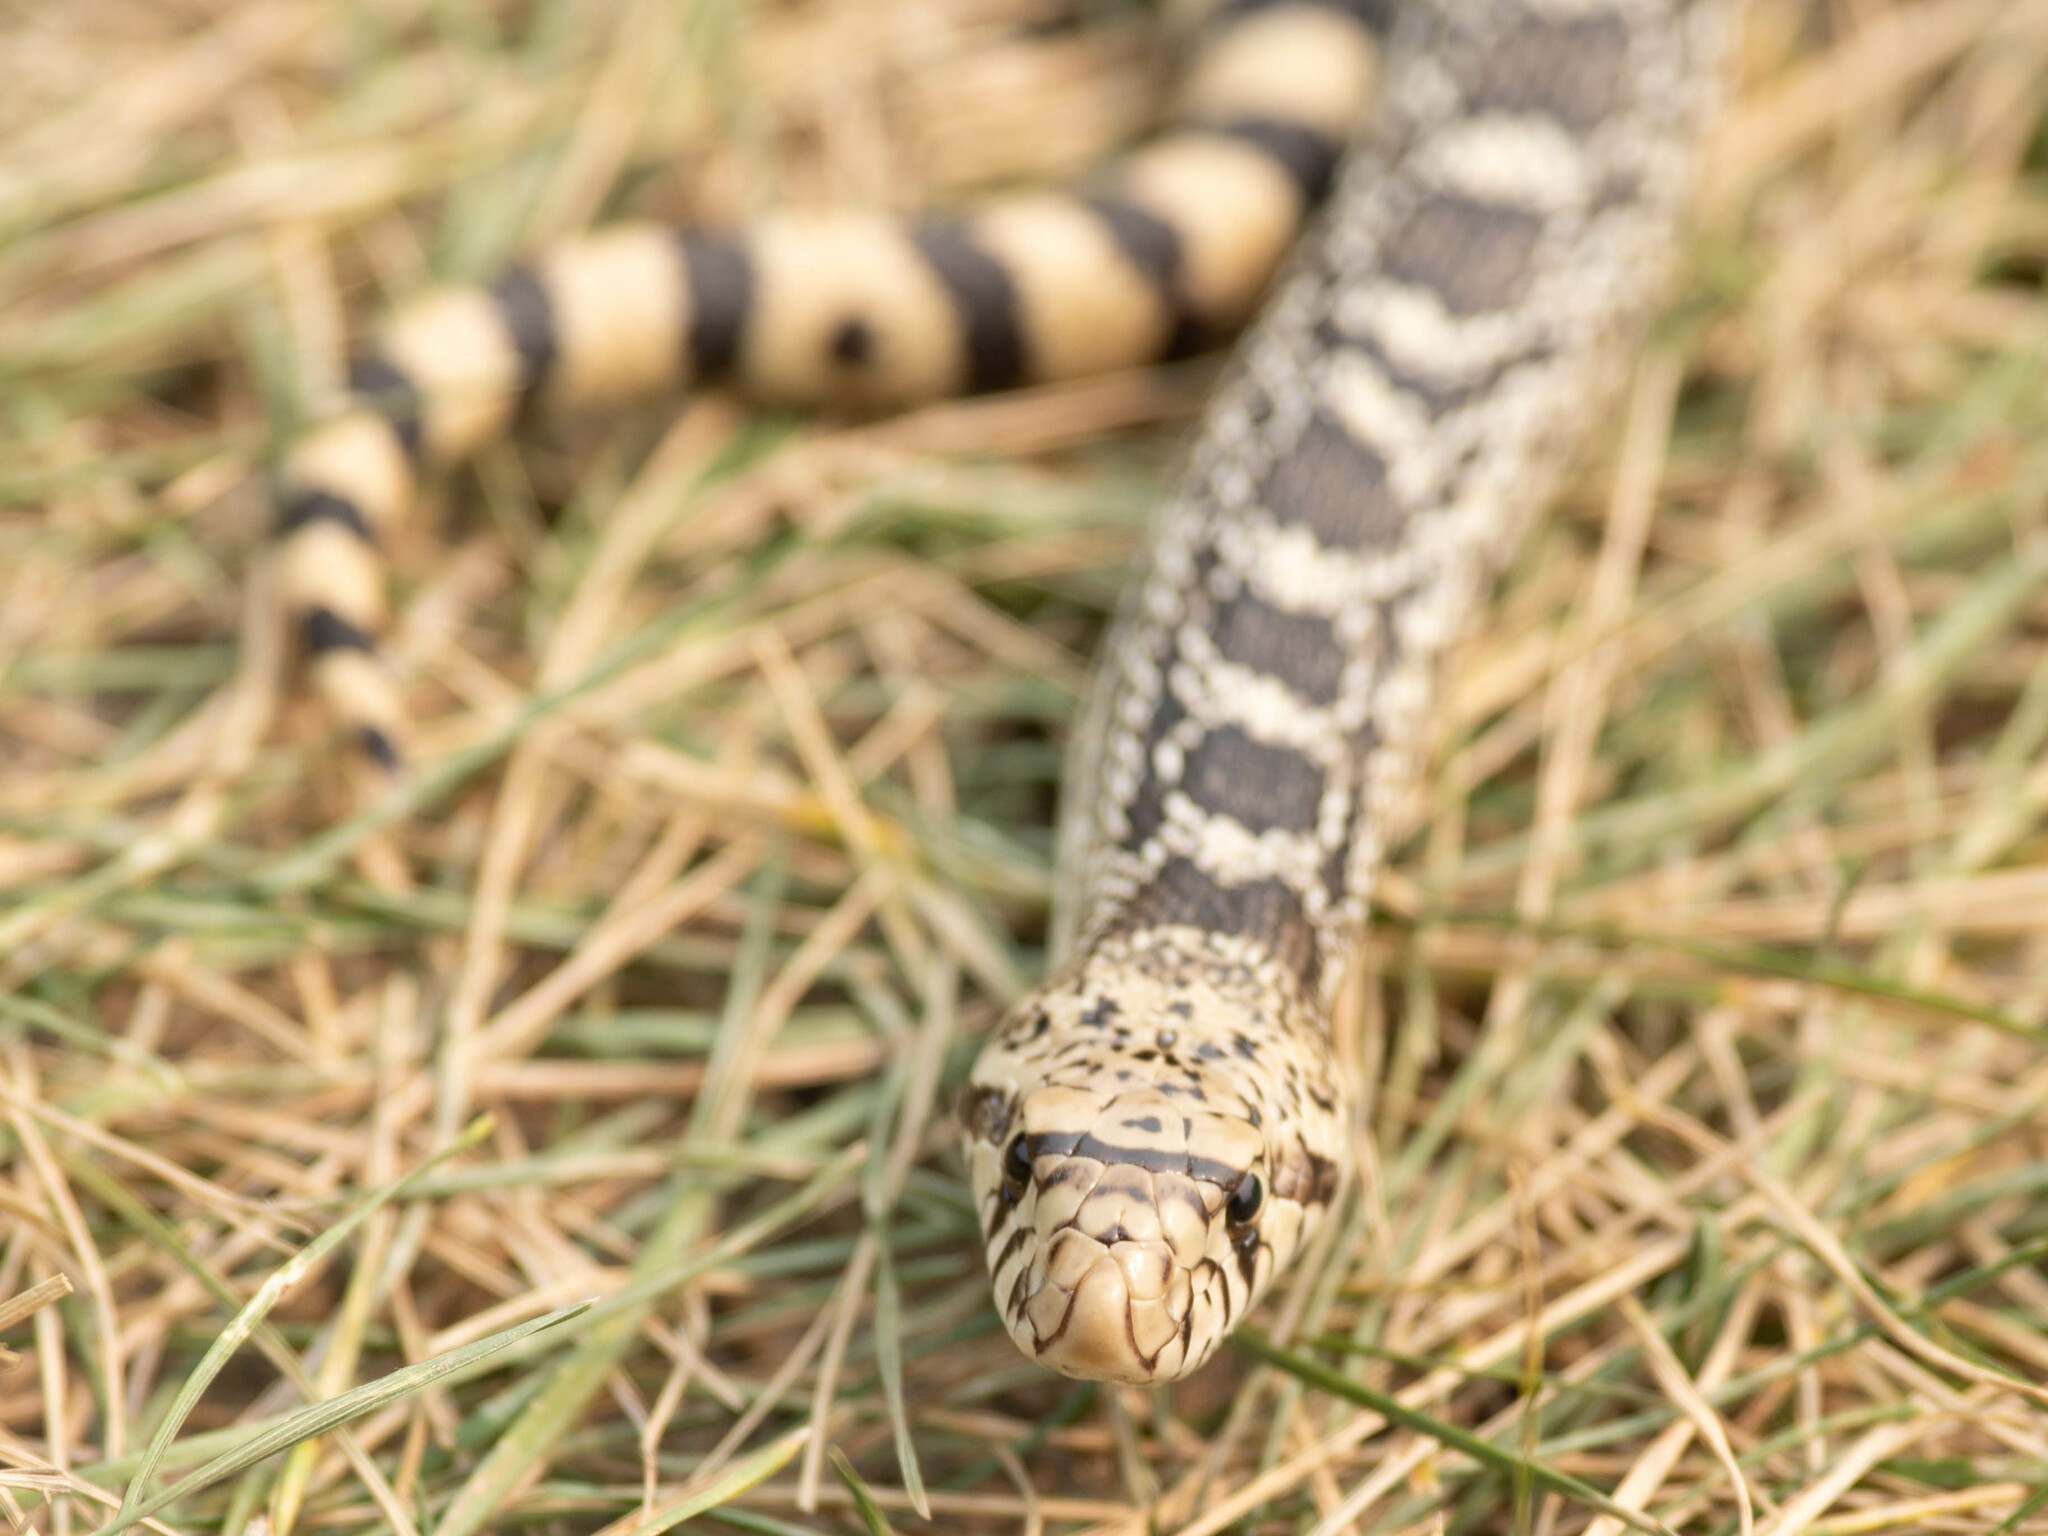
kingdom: Animalia
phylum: Chordata
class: Squamata
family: Colubridae
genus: Pituophis
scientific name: Pituophis catenifer
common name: Gopher snake
